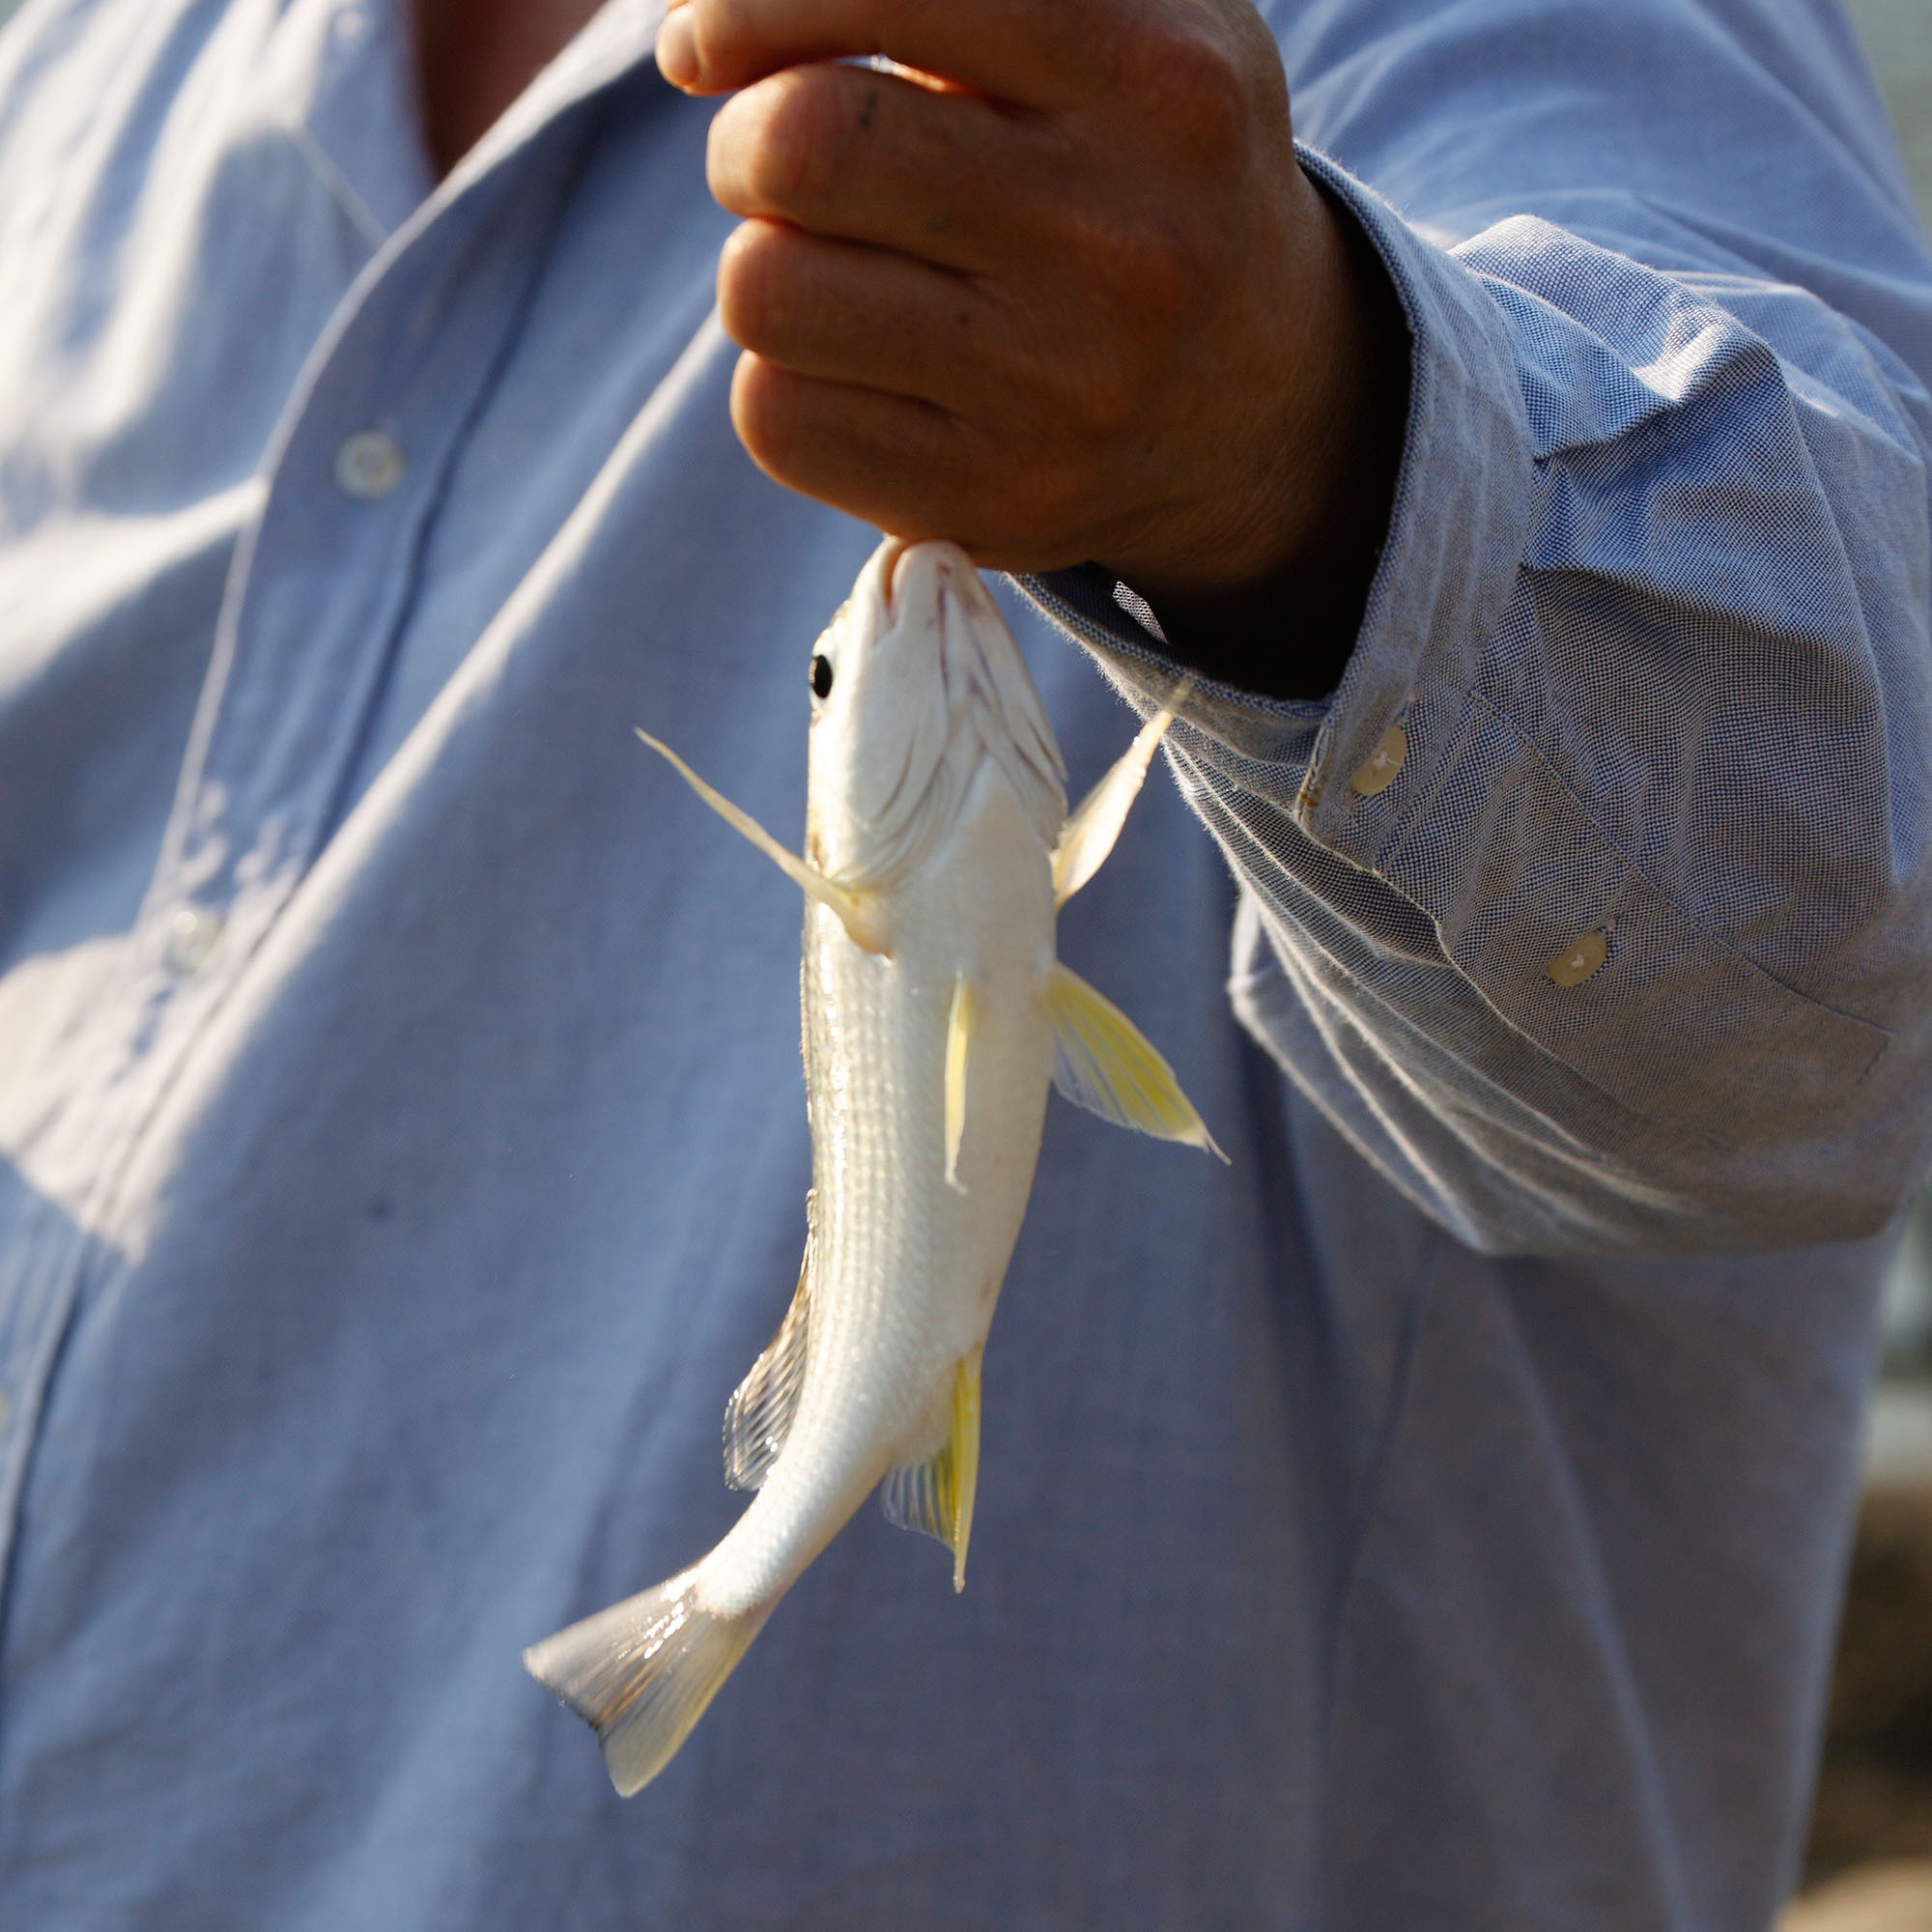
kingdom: Animalia
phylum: Chordata
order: Perciformes
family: Haemulidae
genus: Pomadasys
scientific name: Pomadasys argenteus
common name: Silver grunt
